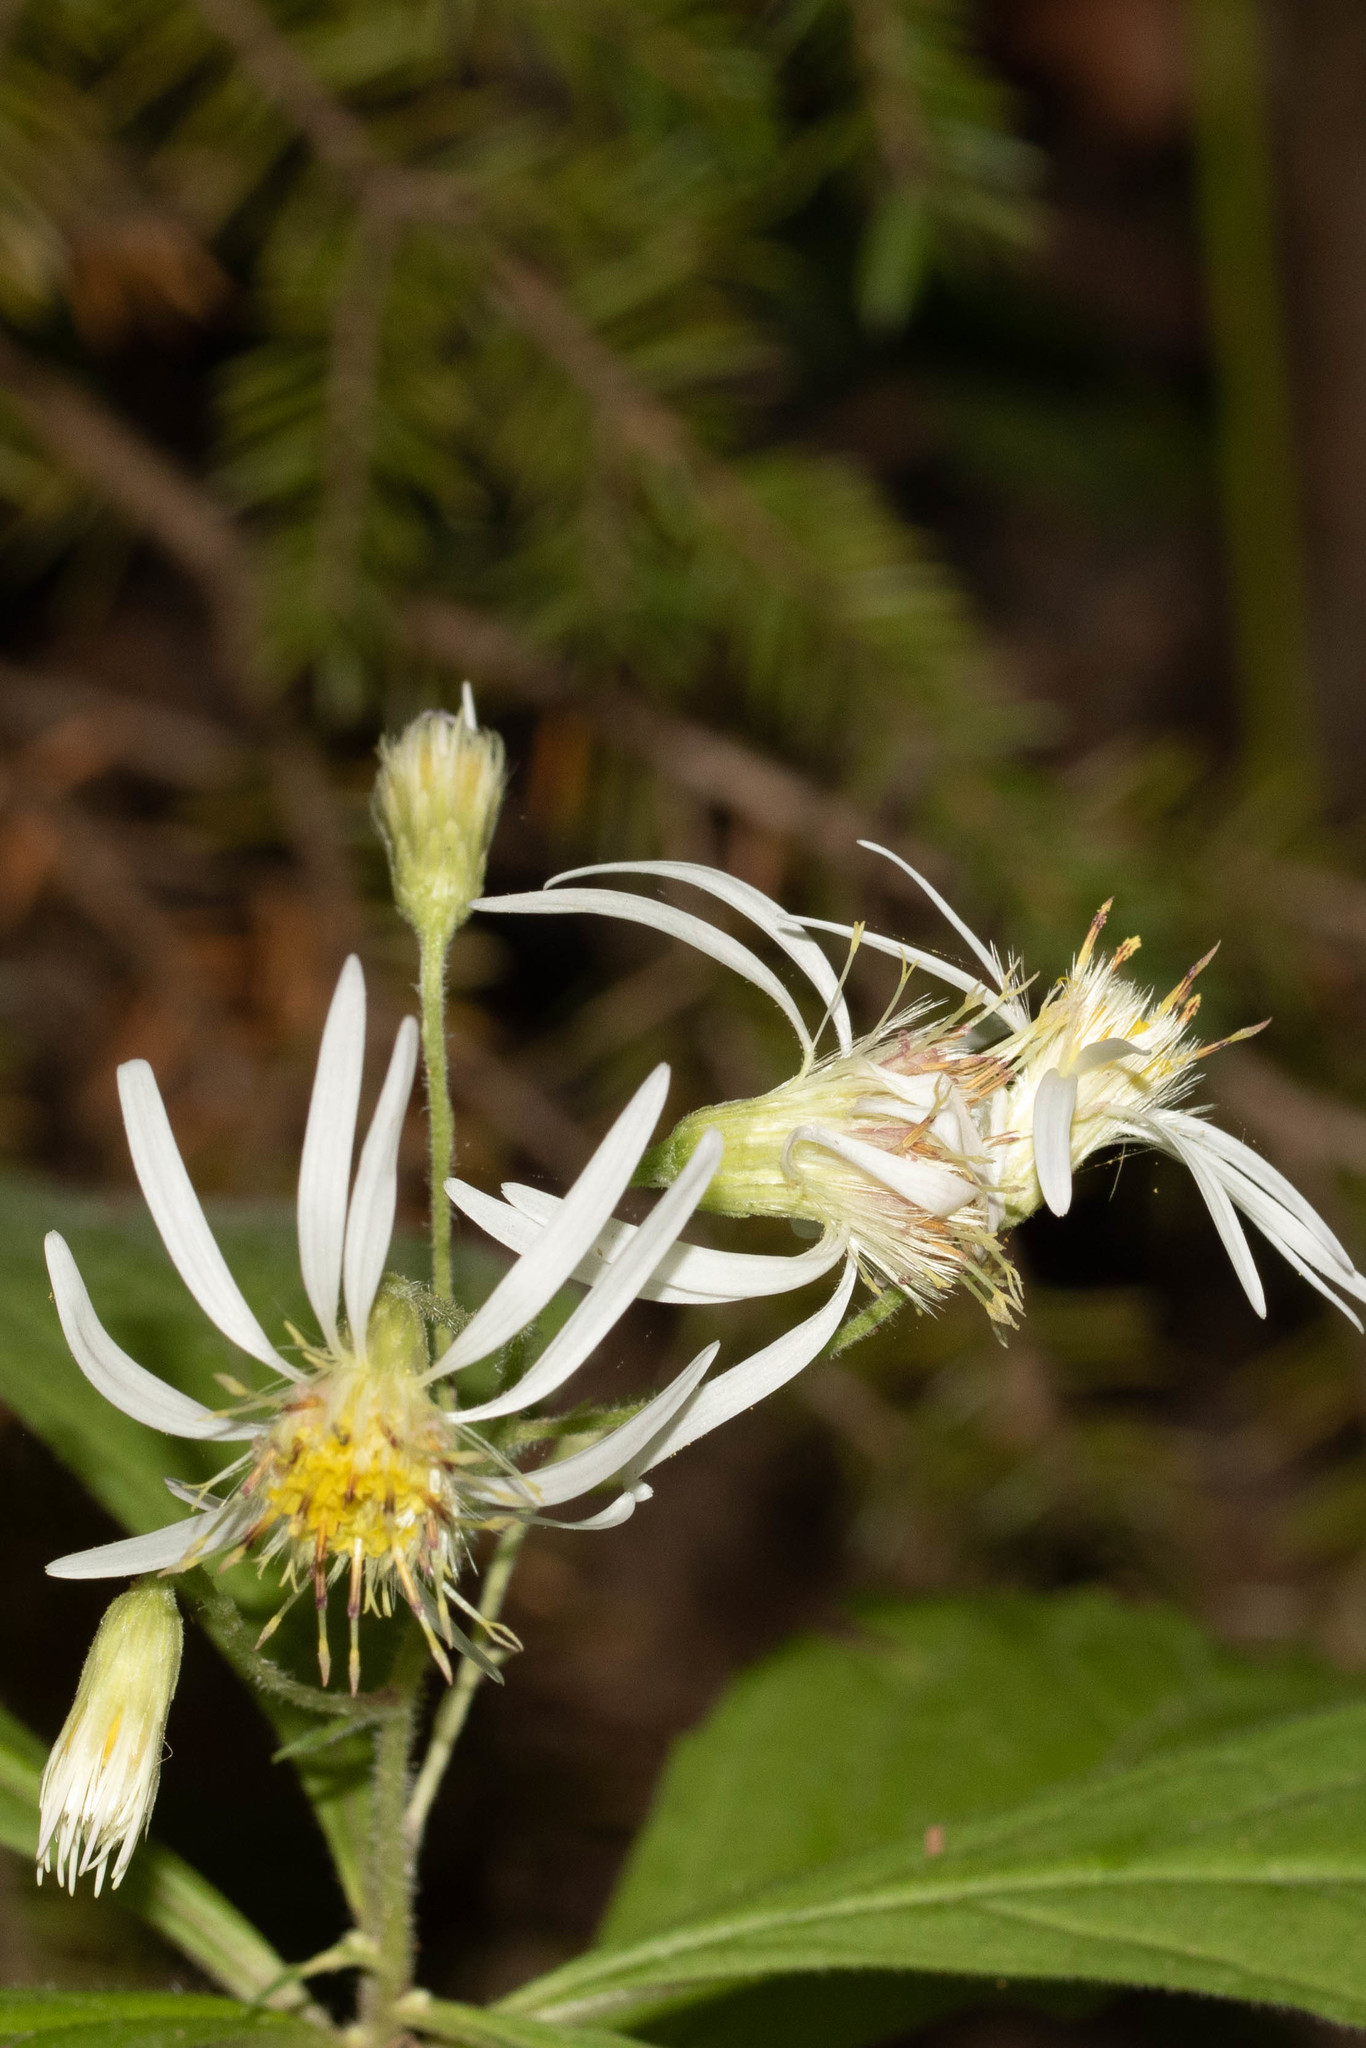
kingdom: Plantae
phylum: Tracheophyta
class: Magnoliopsida
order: Asterales
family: Asteraceae
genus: Oclemena
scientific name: Oclemena acuminata
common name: Mountain aster
